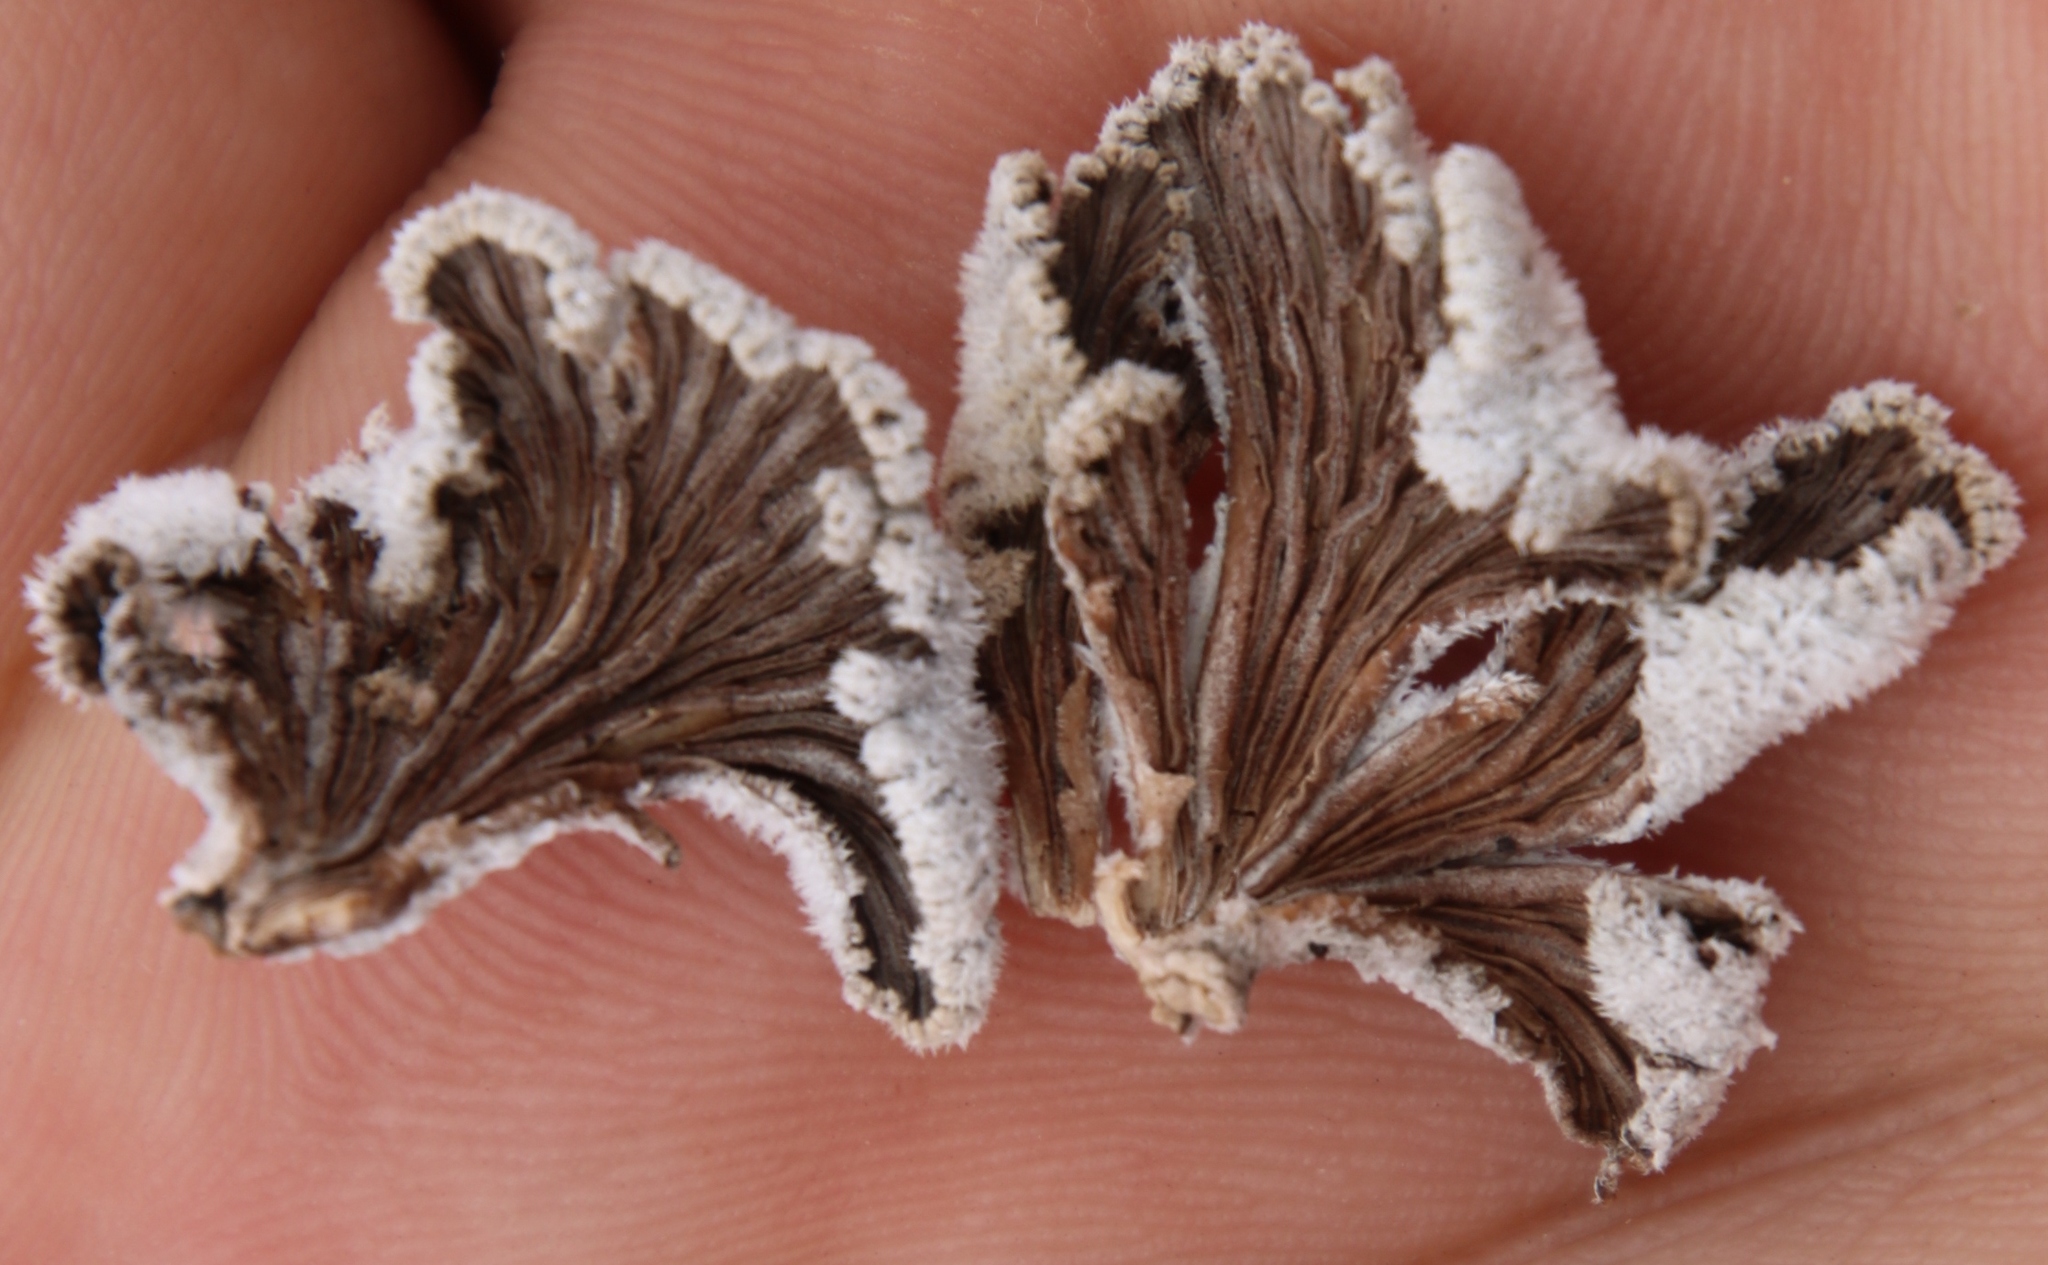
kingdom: Fungi
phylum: Basidiomycota
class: Agaricomycetes
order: Agaricales
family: Schizophyllaceae
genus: Schizophyllum
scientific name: Schizophyllum commune
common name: Common porecrust
